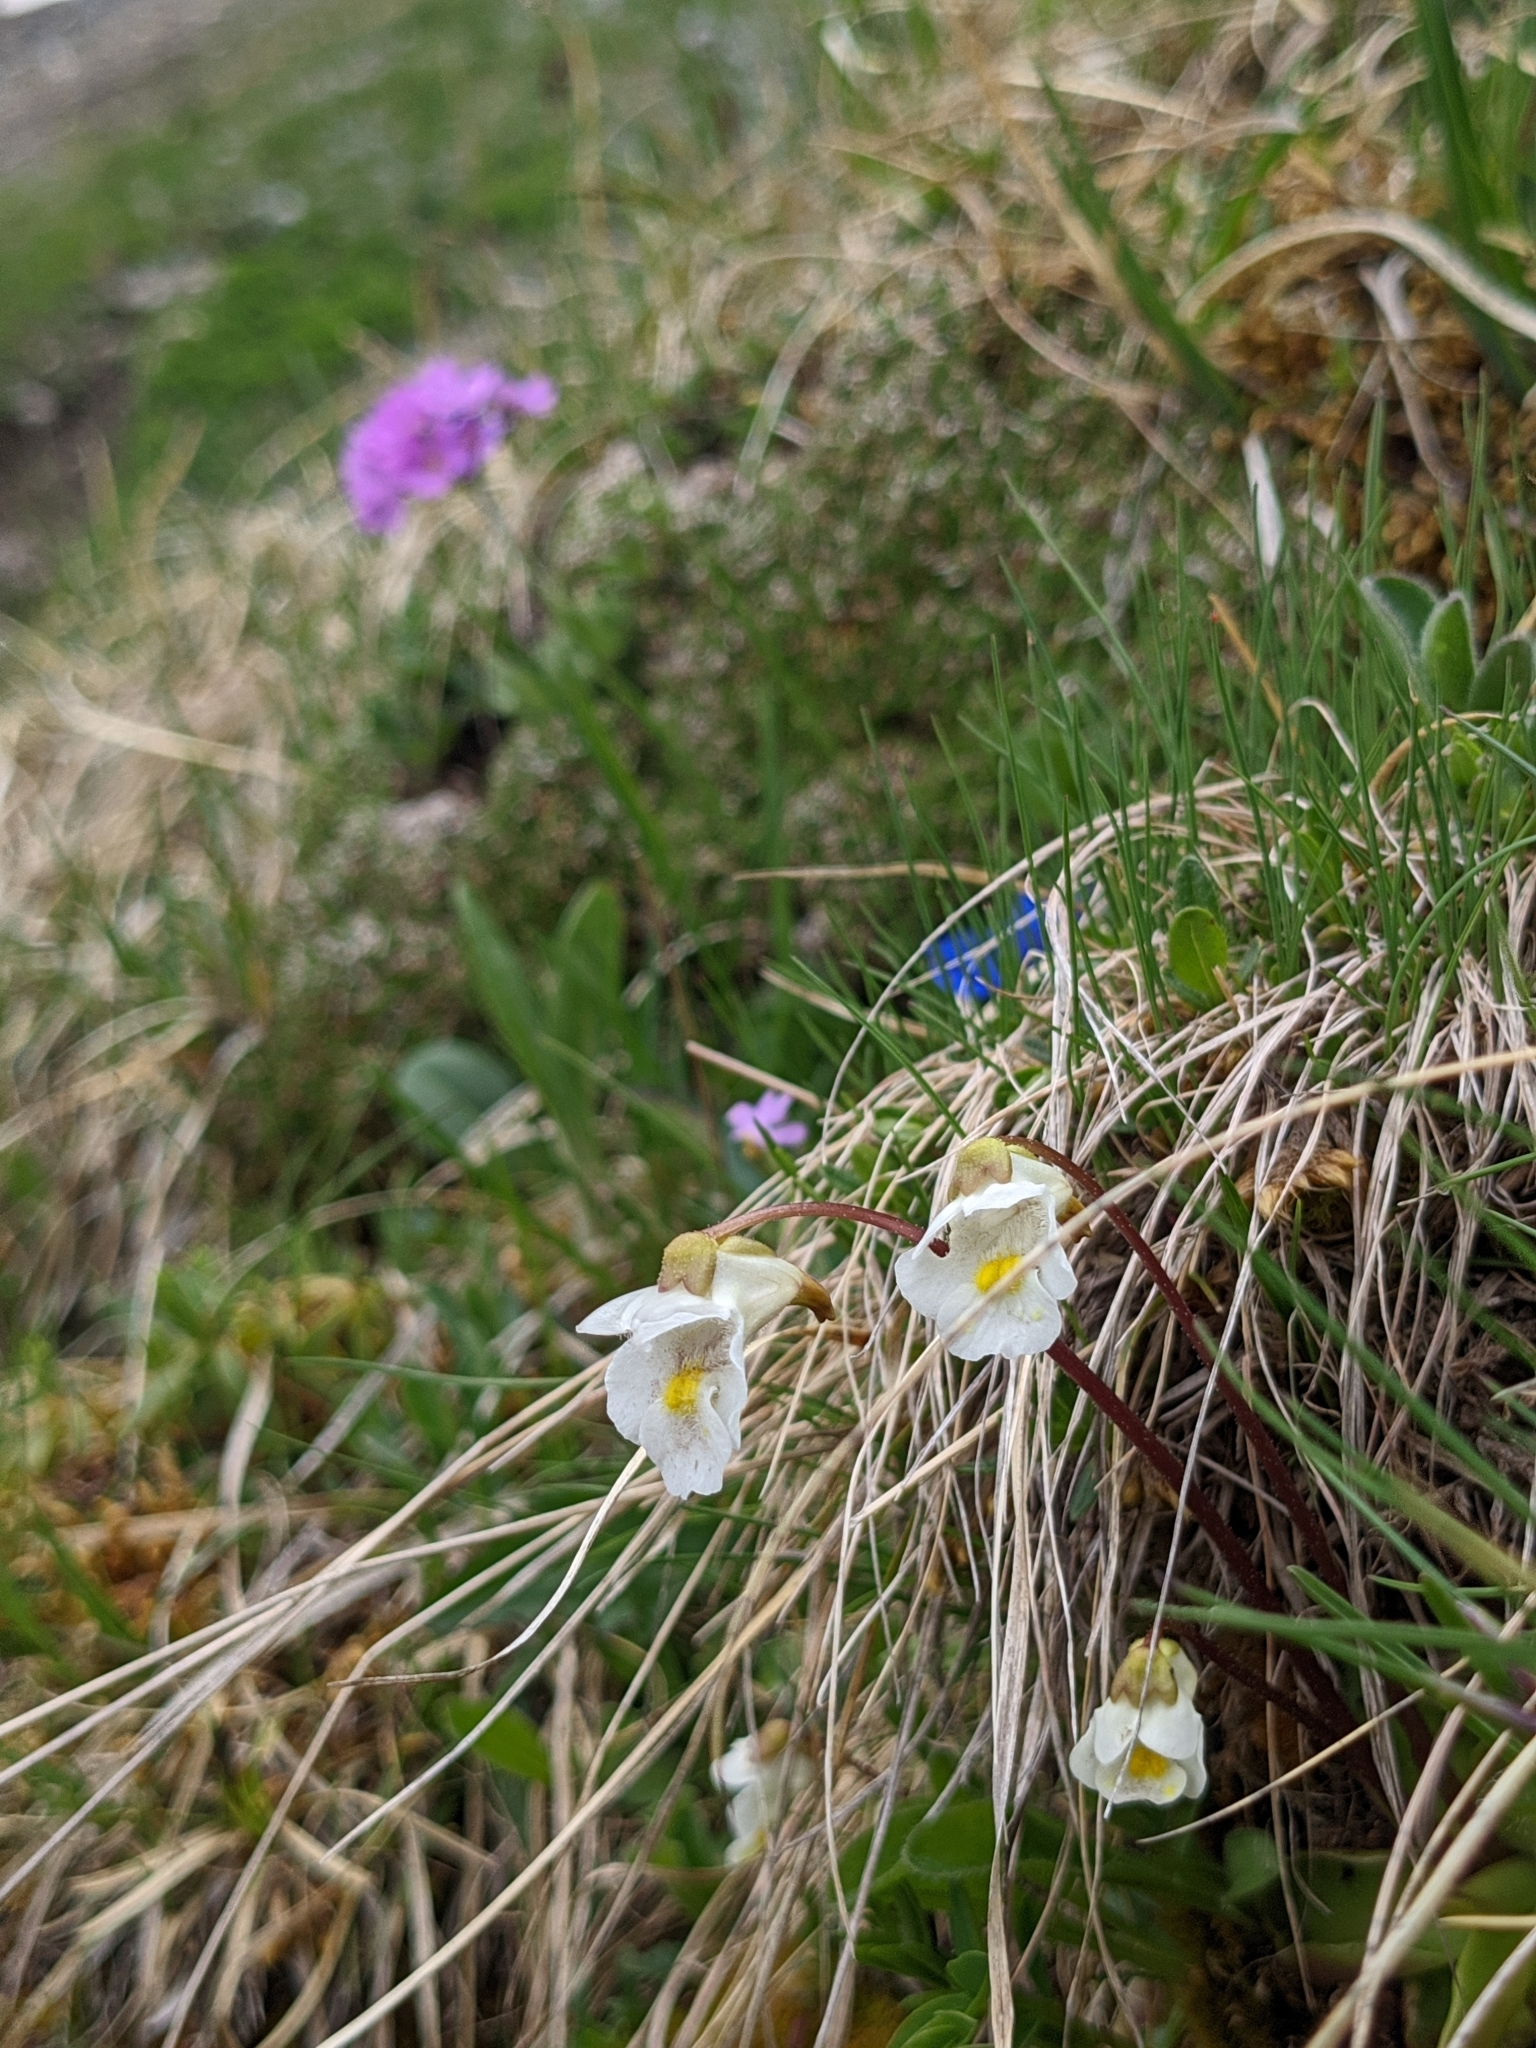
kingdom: Plantae
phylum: Tracheophyta
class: Magnoliopsida
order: Lamiales
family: Lentibulariaceae
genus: Pinguicula
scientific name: Pinguicula alpina
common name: Alpine butterwort
